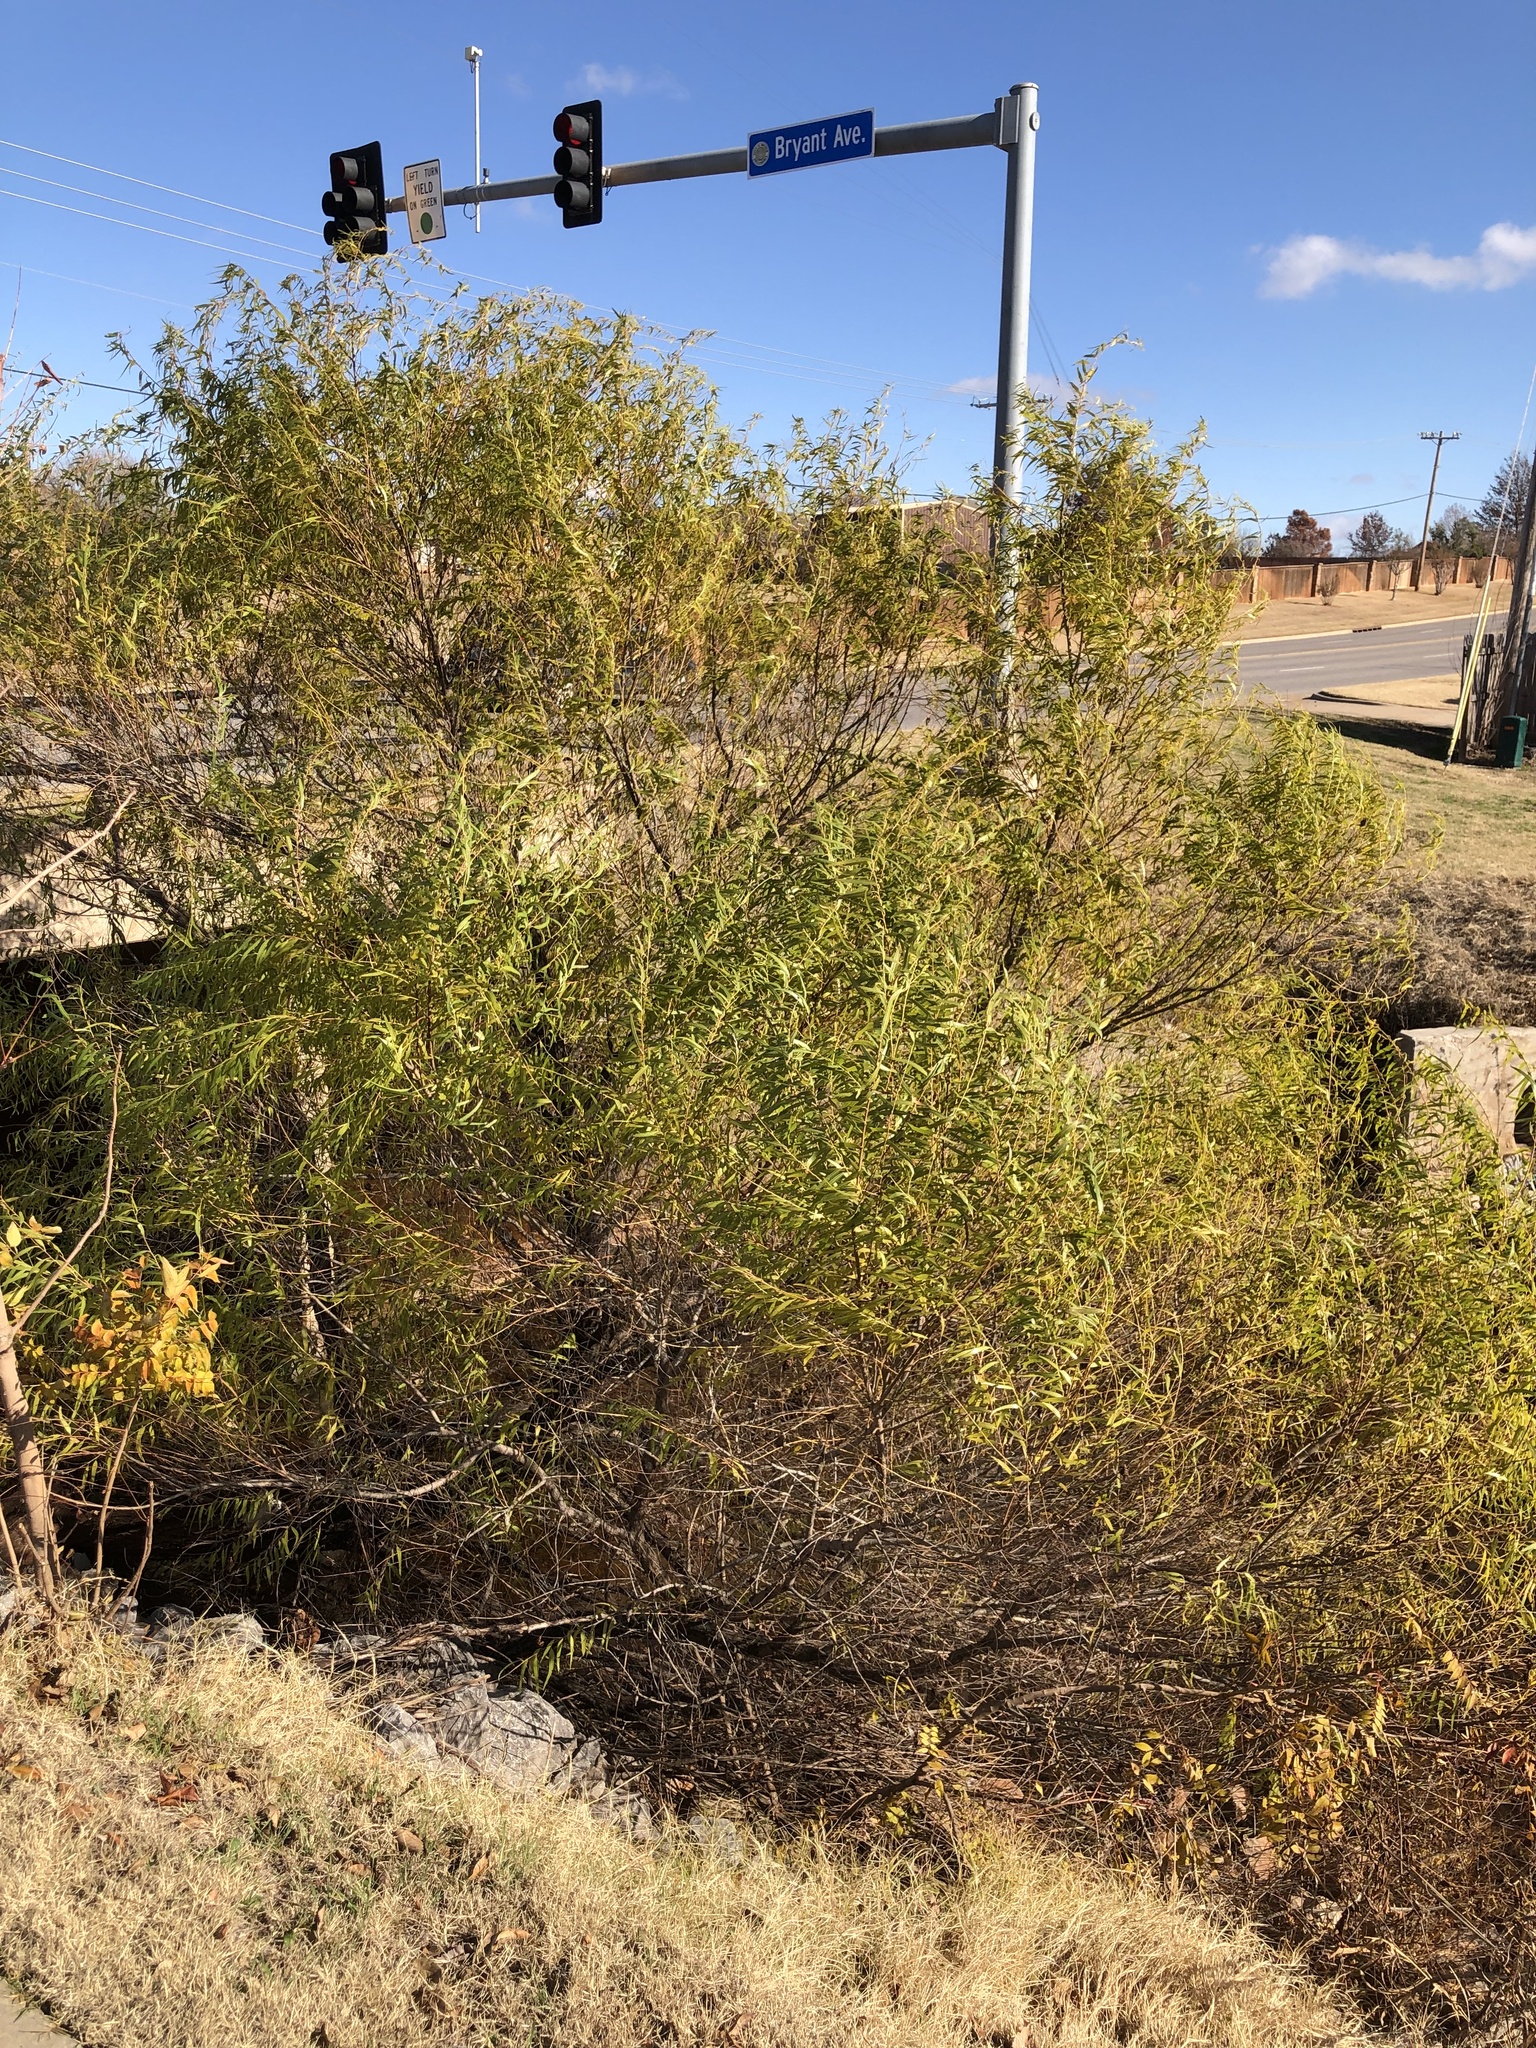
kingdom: Plantae
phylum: Tracheophyta
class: Magnoliopsida
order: Malpighiales
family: Salicaceae
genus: Salix
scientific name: Salix nigra
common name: Black willow
